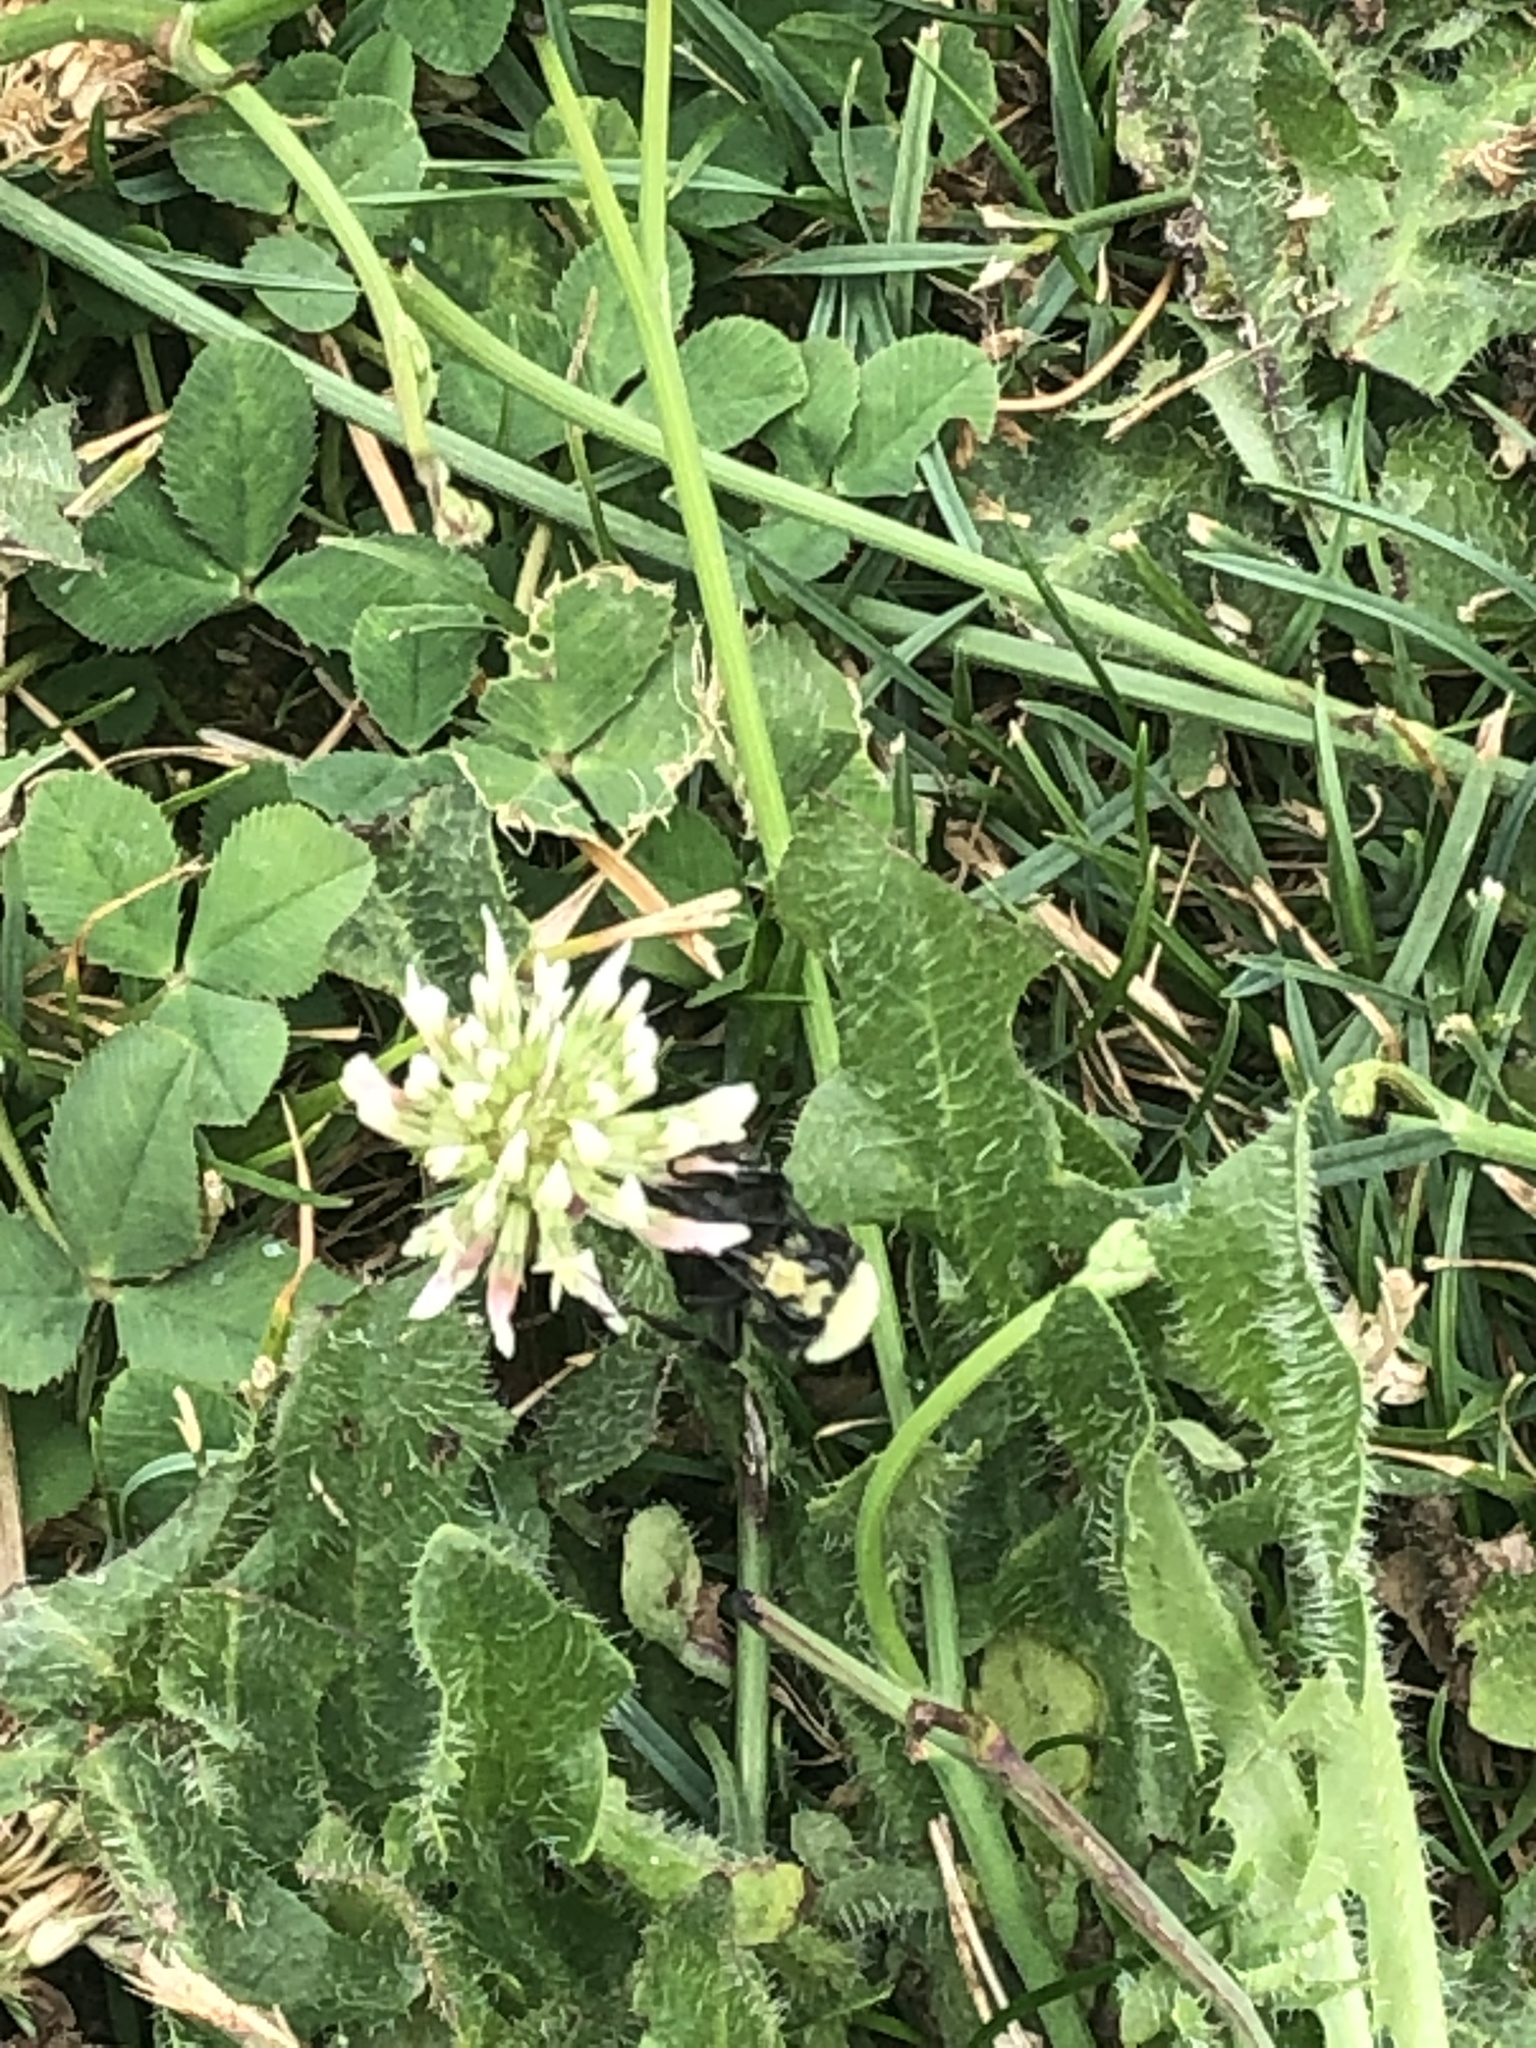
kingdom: Plantae
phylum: Tracheophyta
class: Magnoliopsida
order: Fabales
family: Fabaceae
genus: Trifolium
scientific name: Trifolium repens
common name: White clover
